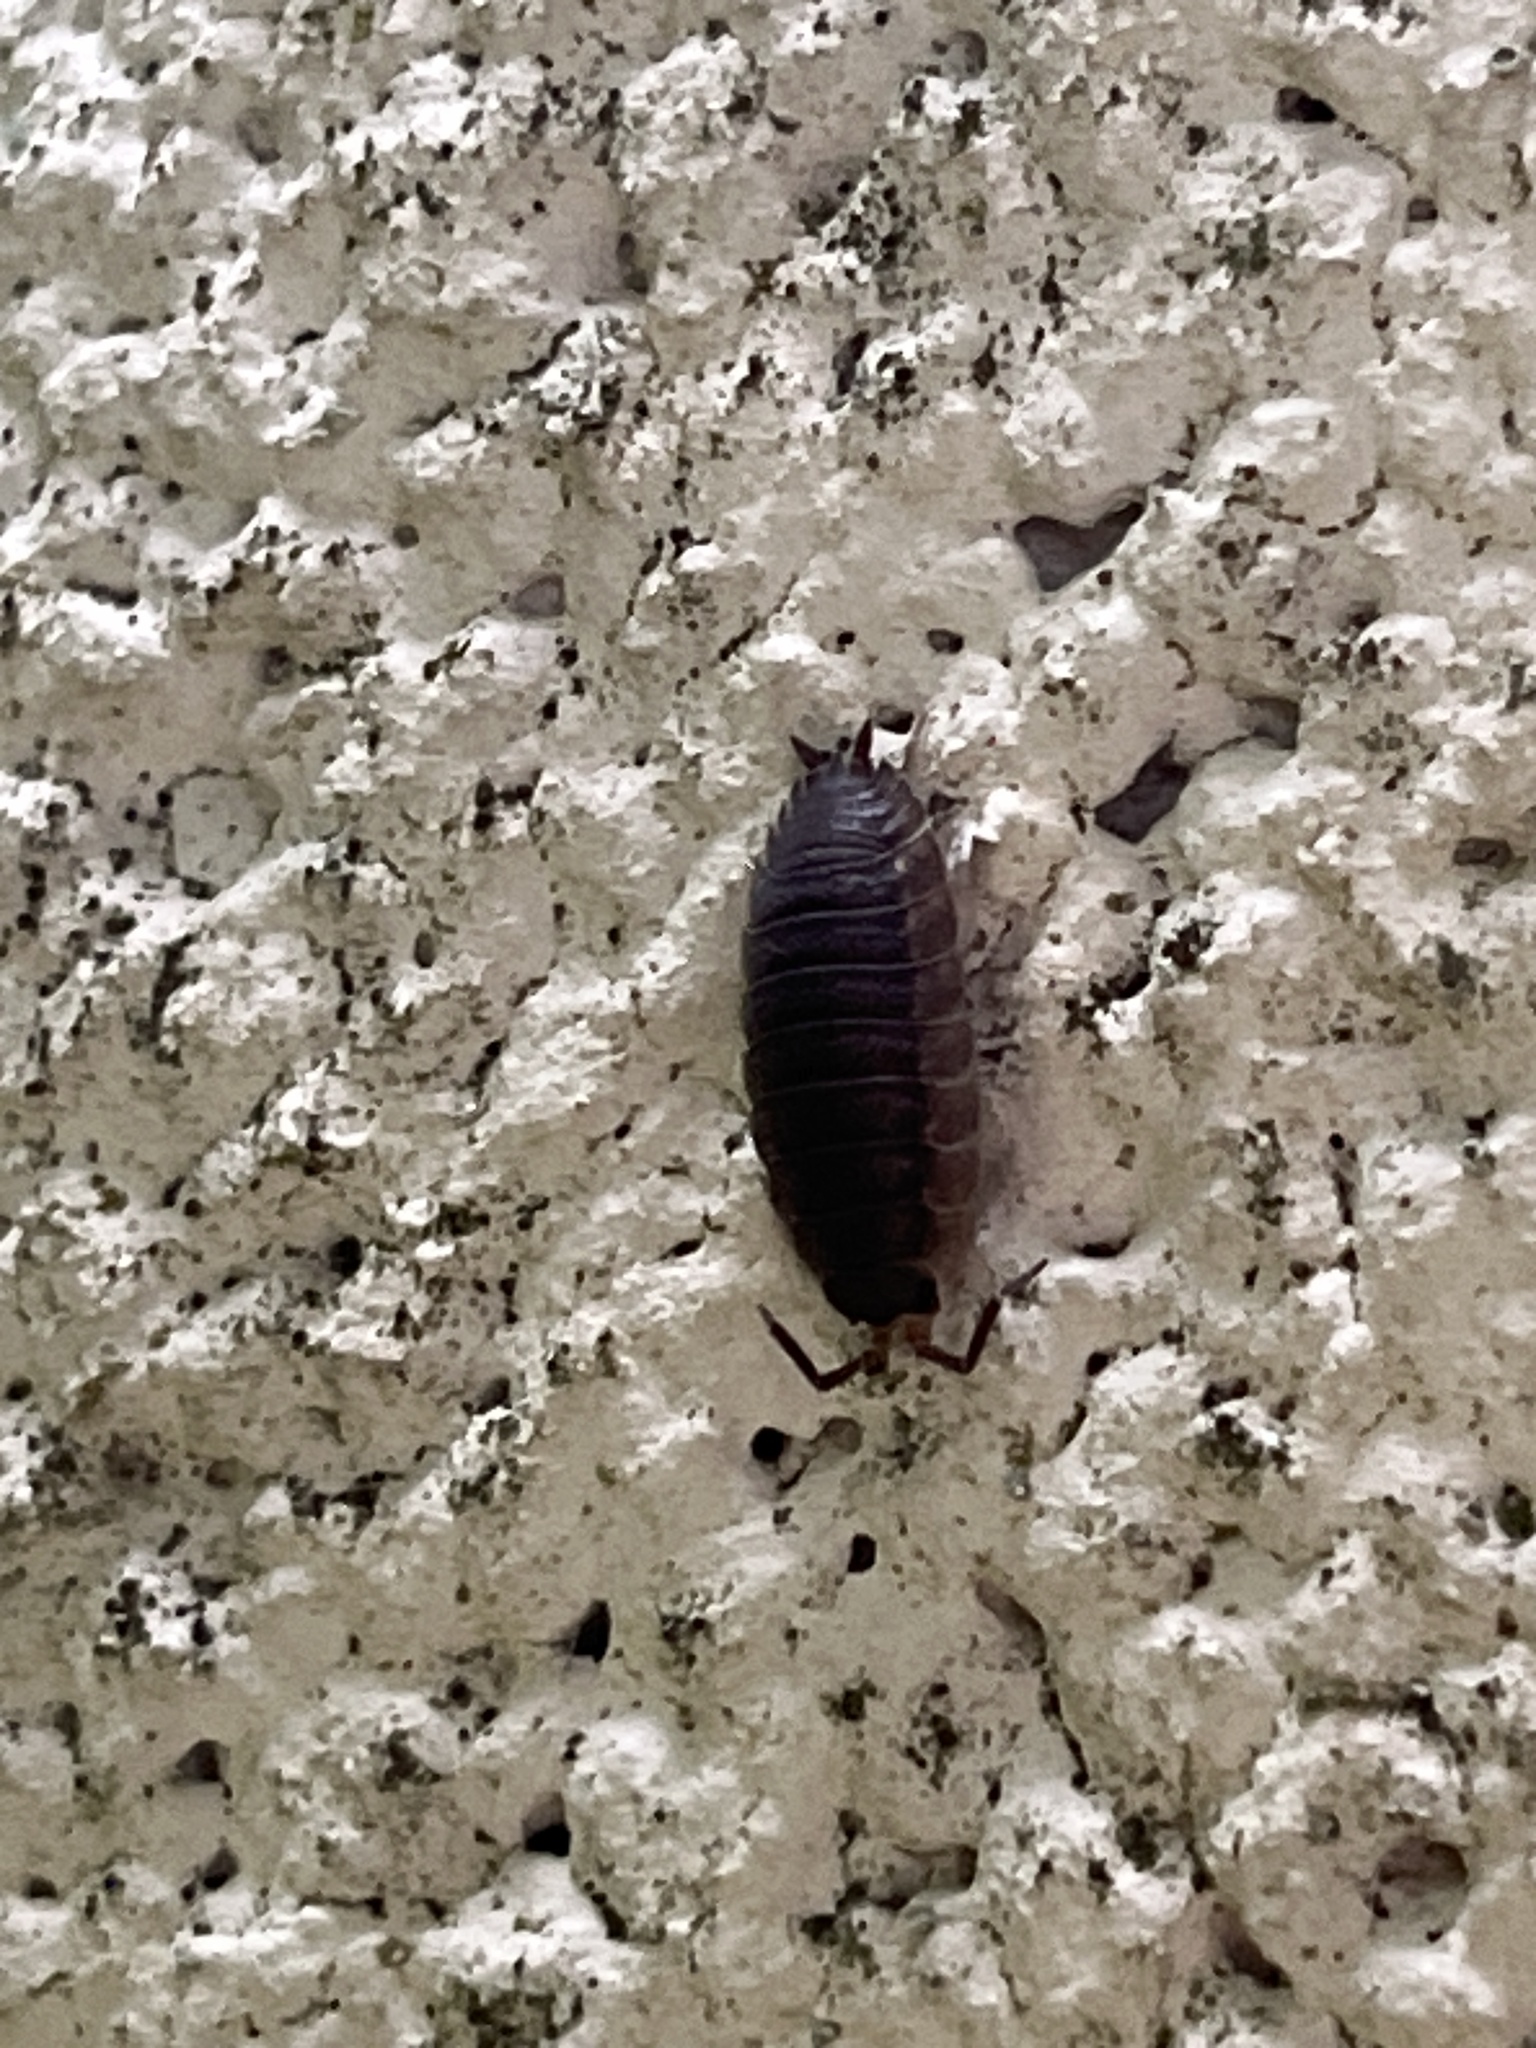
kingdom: Animalia
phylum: Arthropoda
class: Malacostraca
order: Isopoda
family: Porcellionidae
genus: Porcellio
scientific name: Porcellio scaber
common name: Common rough woodlouse
